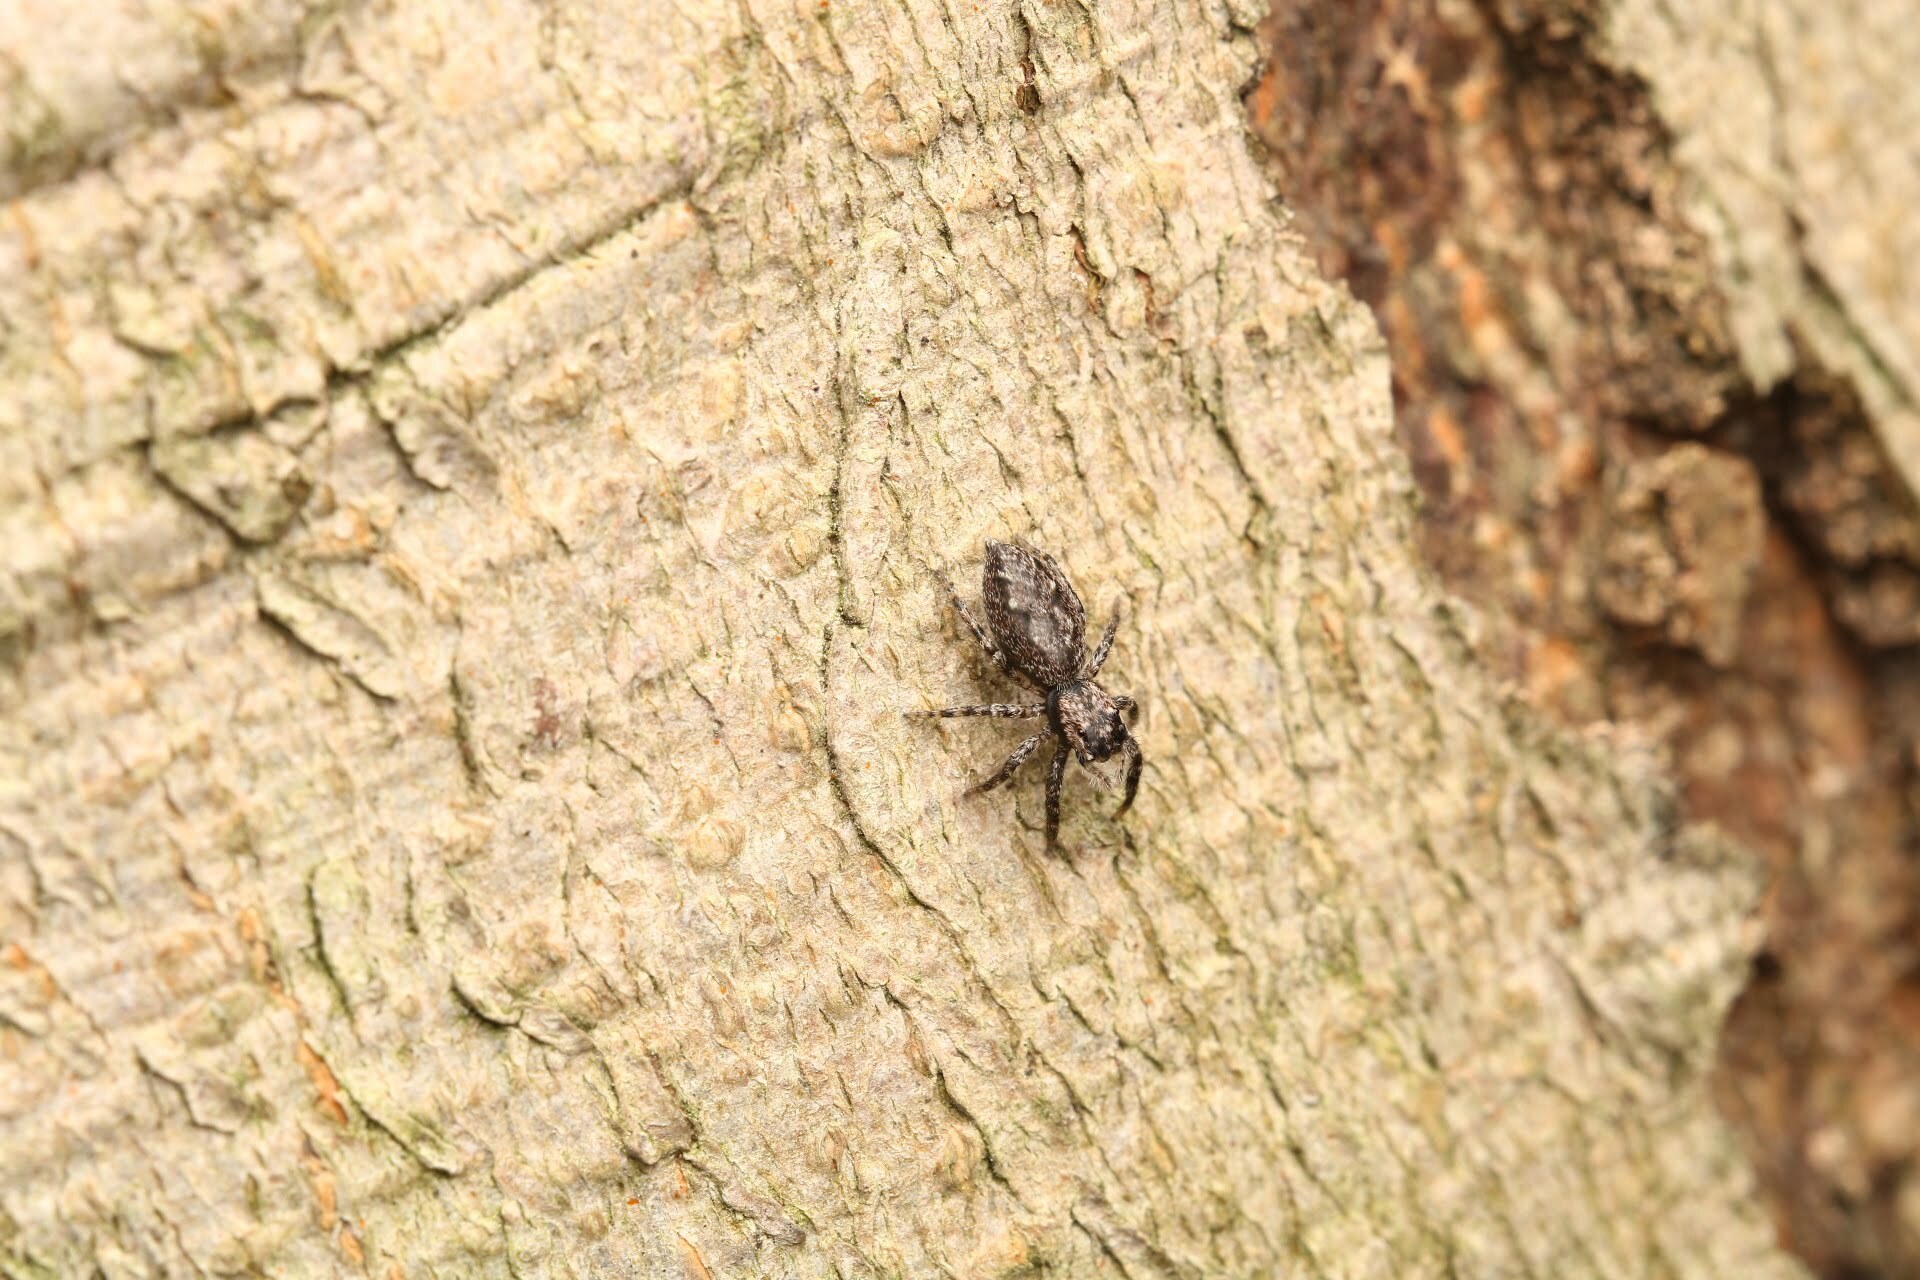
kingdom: Animalia
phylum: Arthropoda
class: Arachnida
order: Araneae
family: Salticidae
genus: Platycryptus
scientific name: Platycryptus undatus
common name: Tan jumping spider
